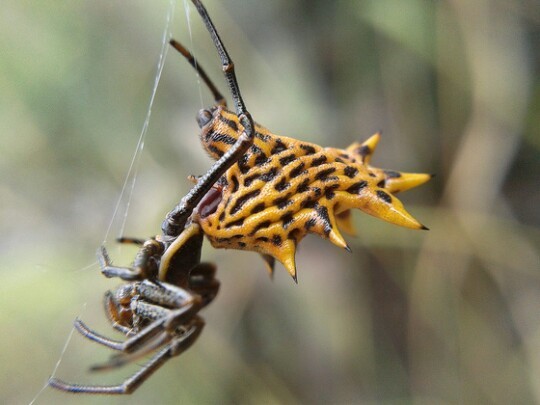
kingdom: Animalia
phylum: Arthropoda
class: Arachnida
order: Araneae
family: Araneidae
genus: Micrathena
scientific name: Micrathena gracilis
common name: Orb weavers
